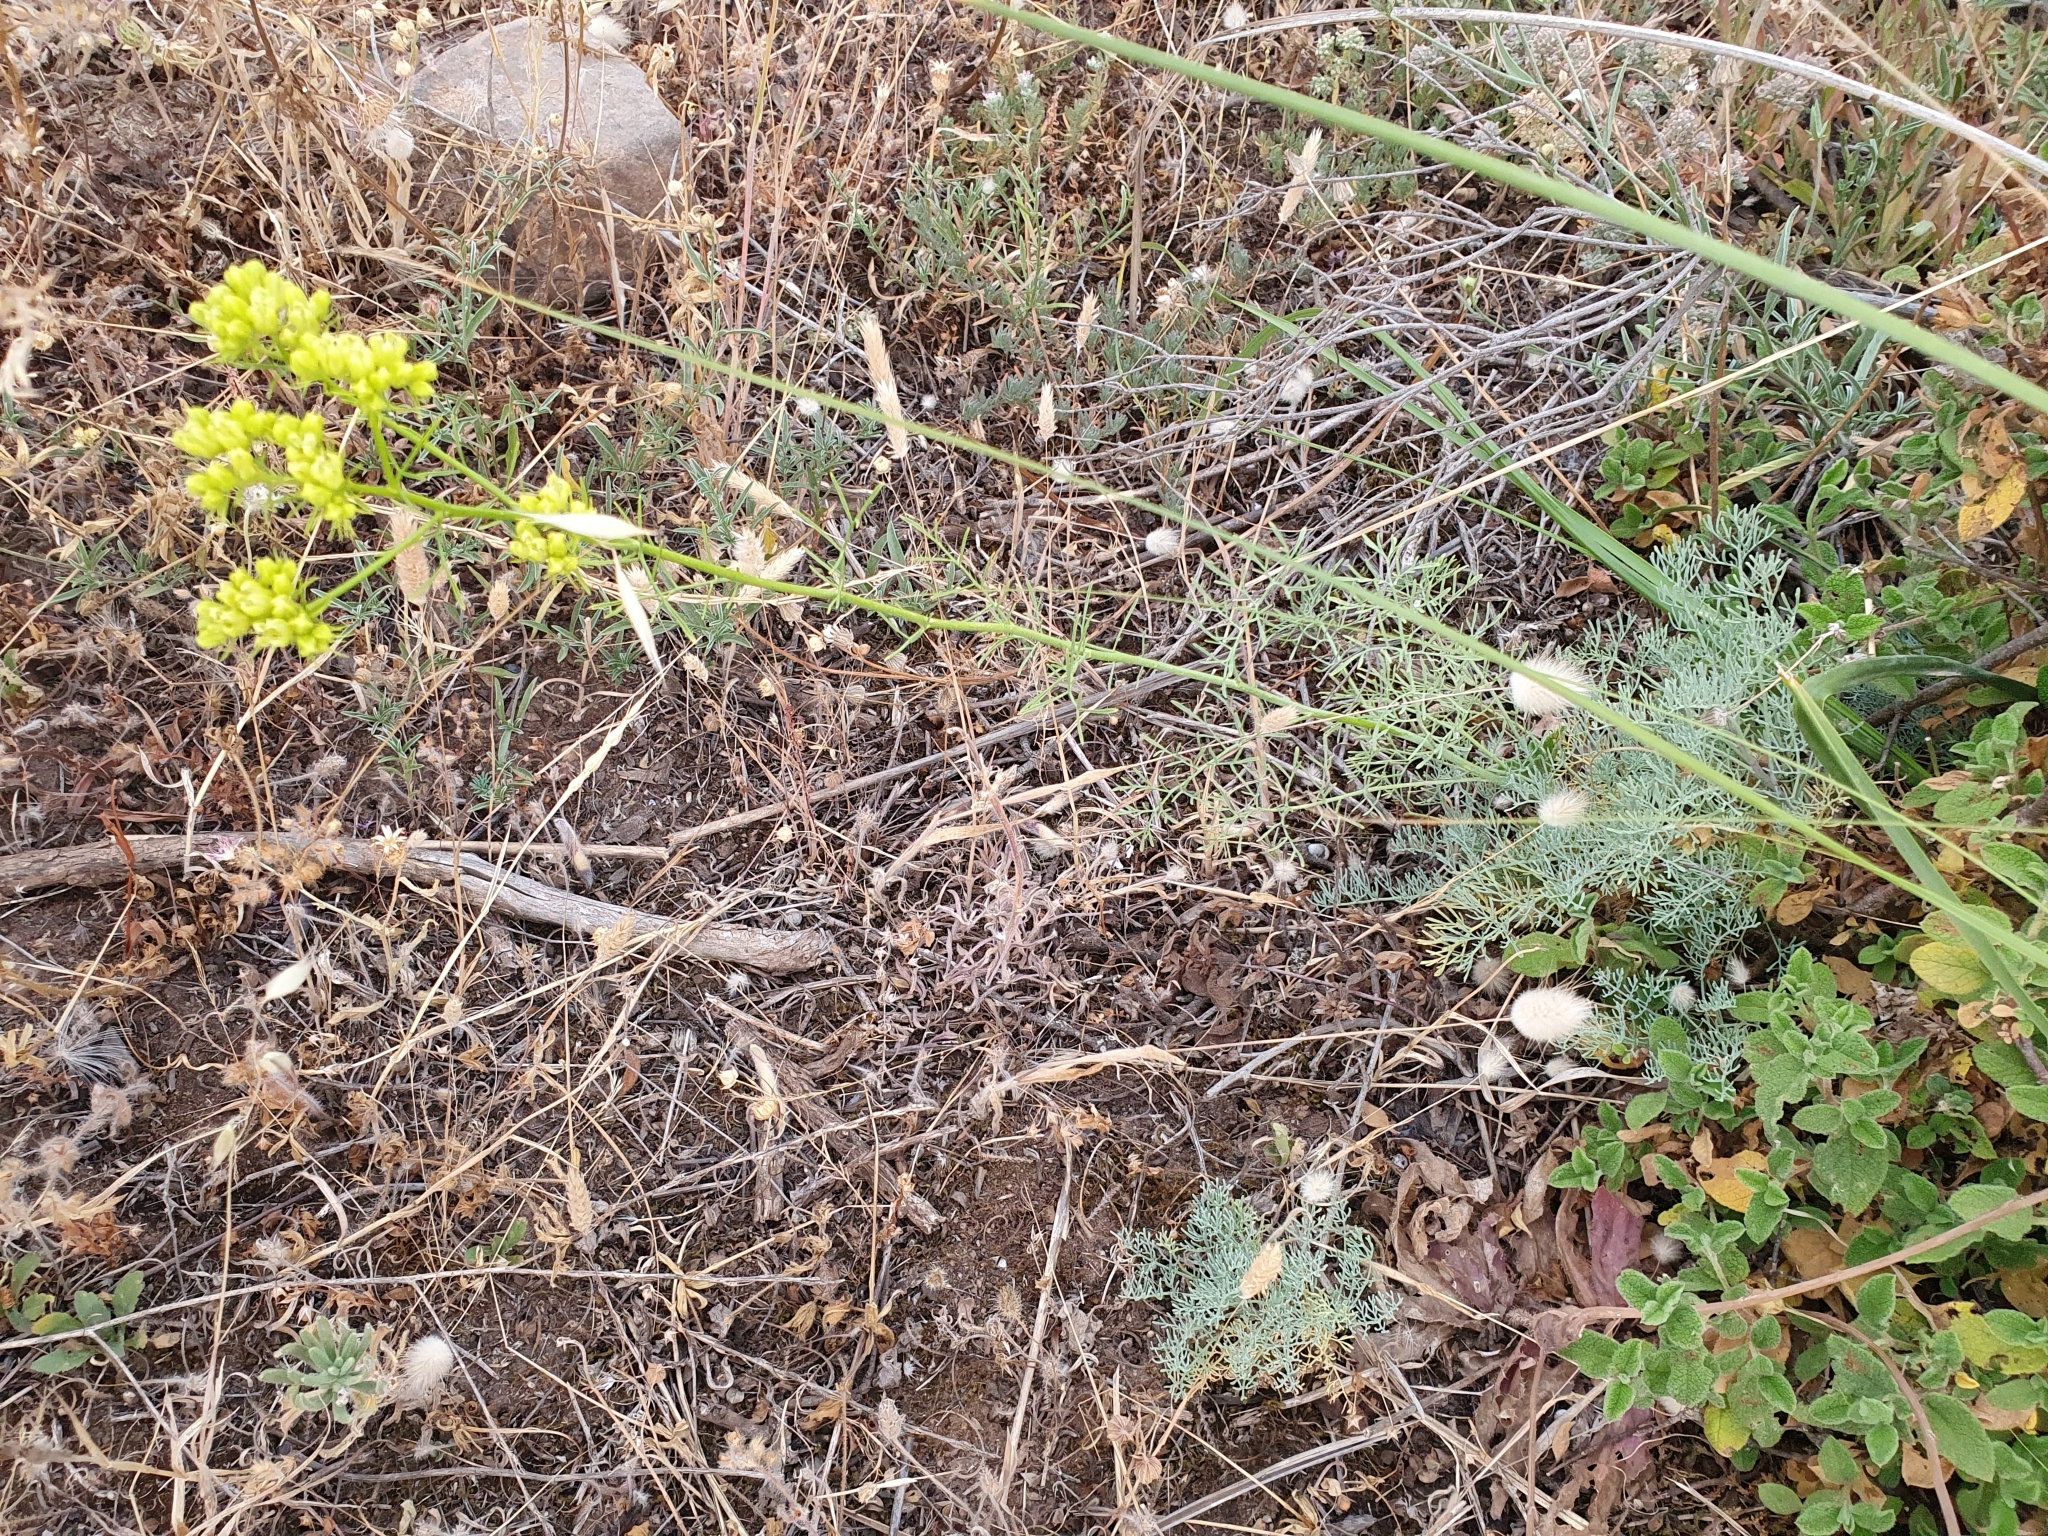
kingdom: Plantae
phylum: Tracheophyta
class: Magnoliopsida
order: Sapindales
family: Rutaceae
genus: Ruta
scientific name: Ruta montana
